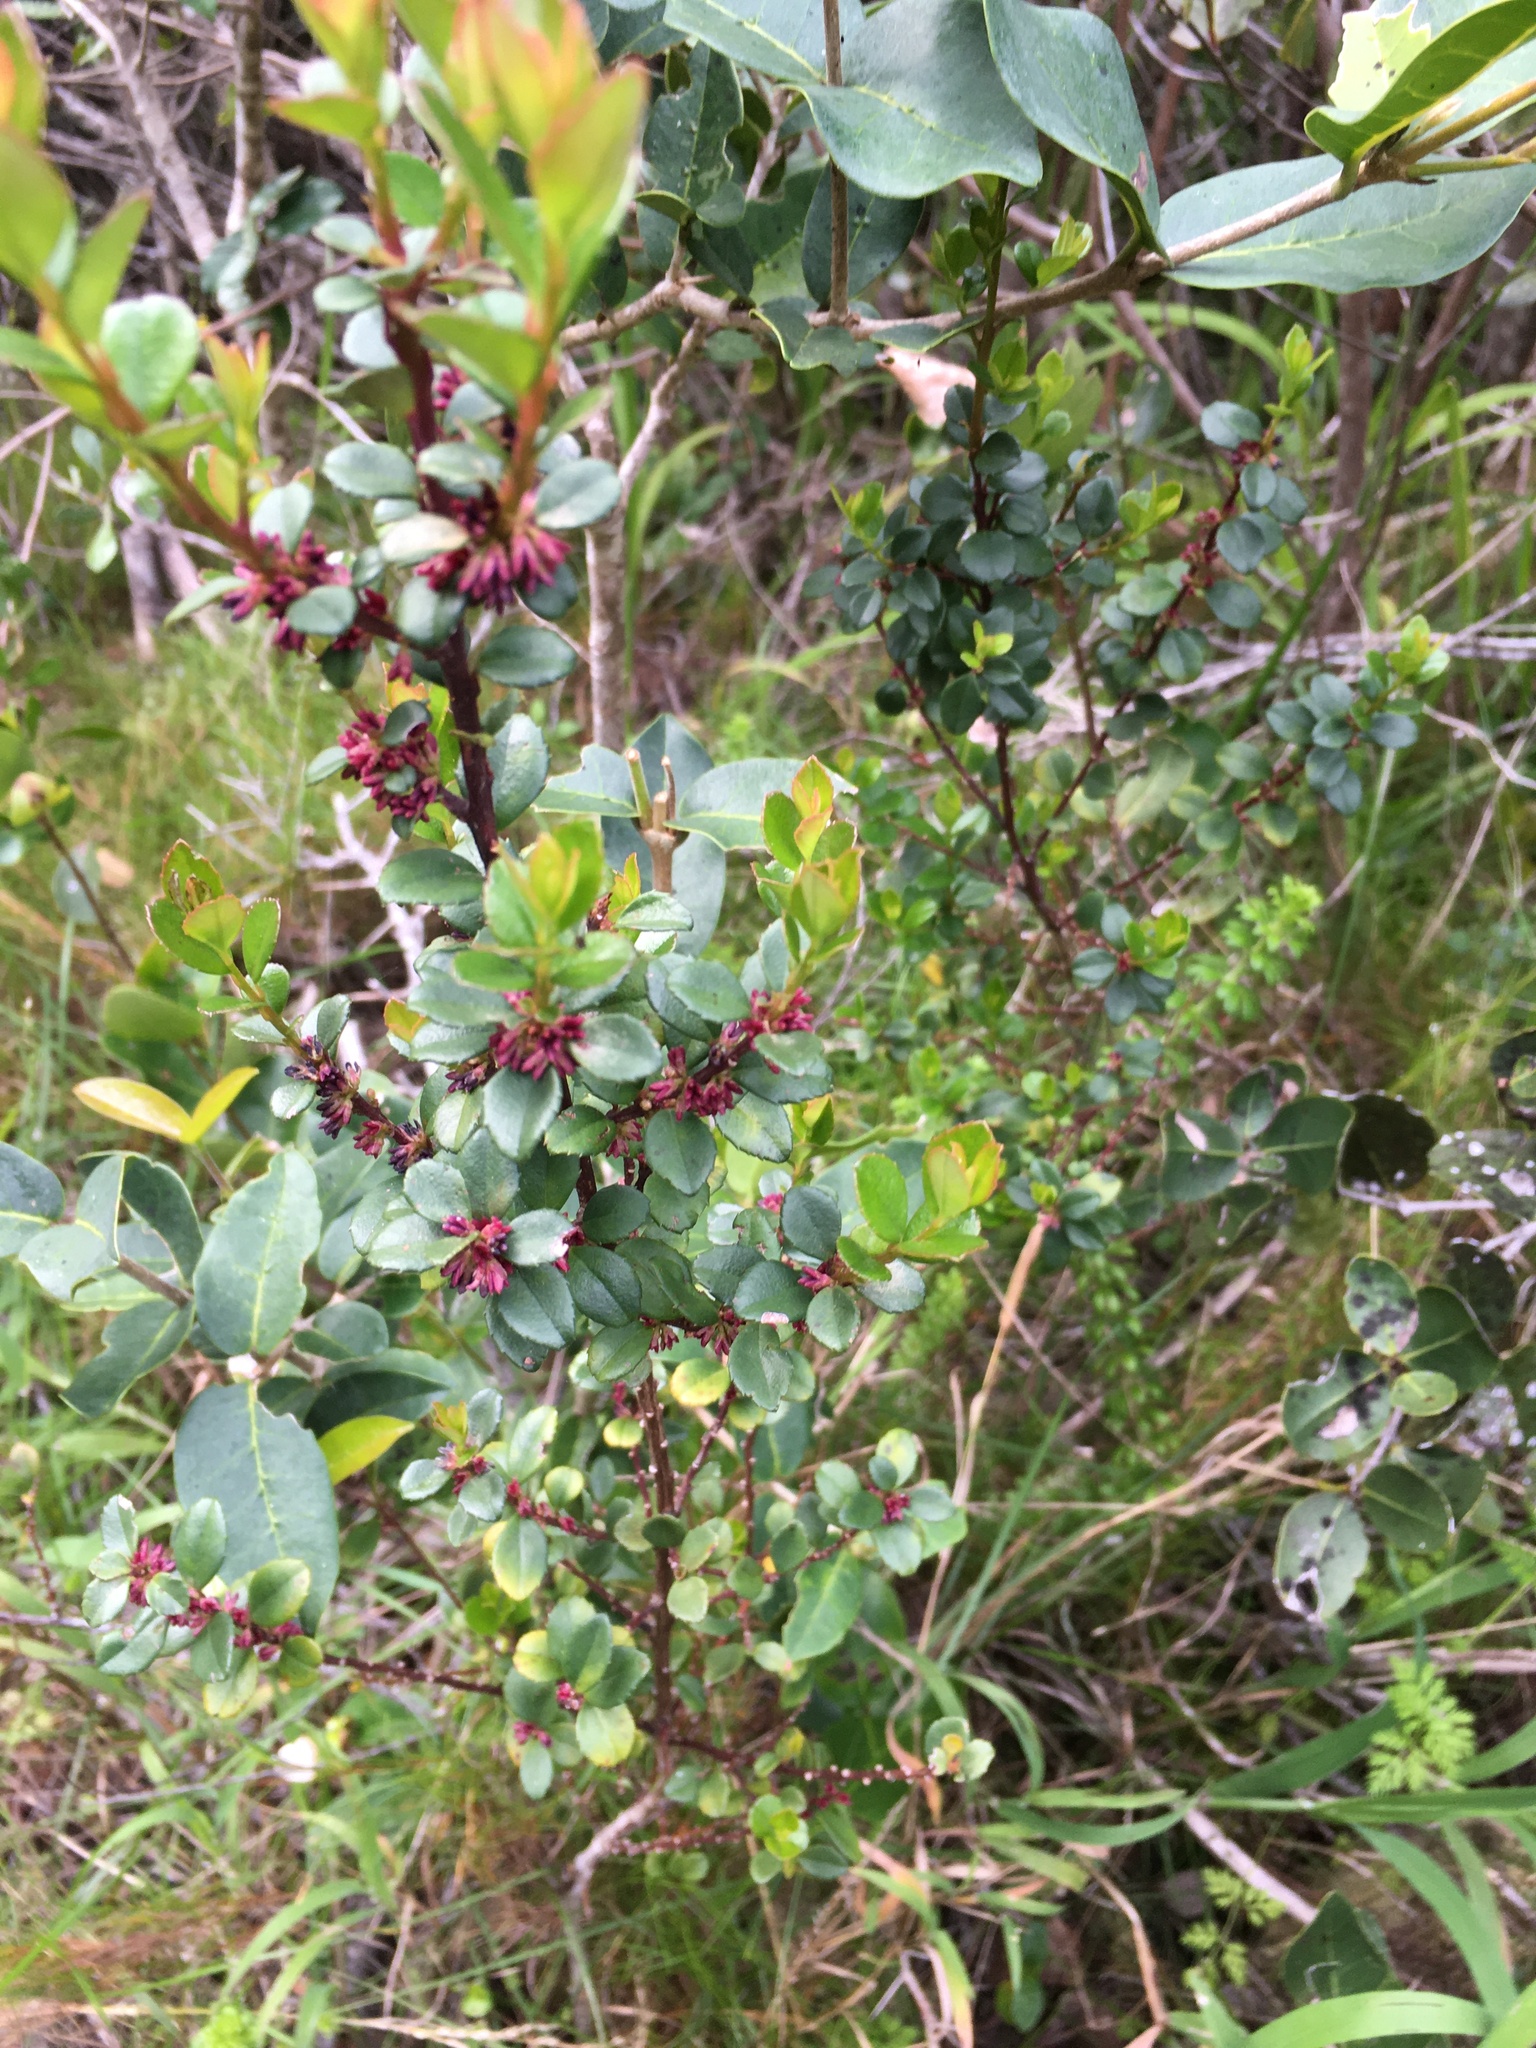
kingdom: Plantae
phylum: Tracheophyta
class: Magnoliopsida
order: Ericales
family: Primulaceae
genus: Myrsine
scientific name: Myrsine africana
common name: African-boxwood
